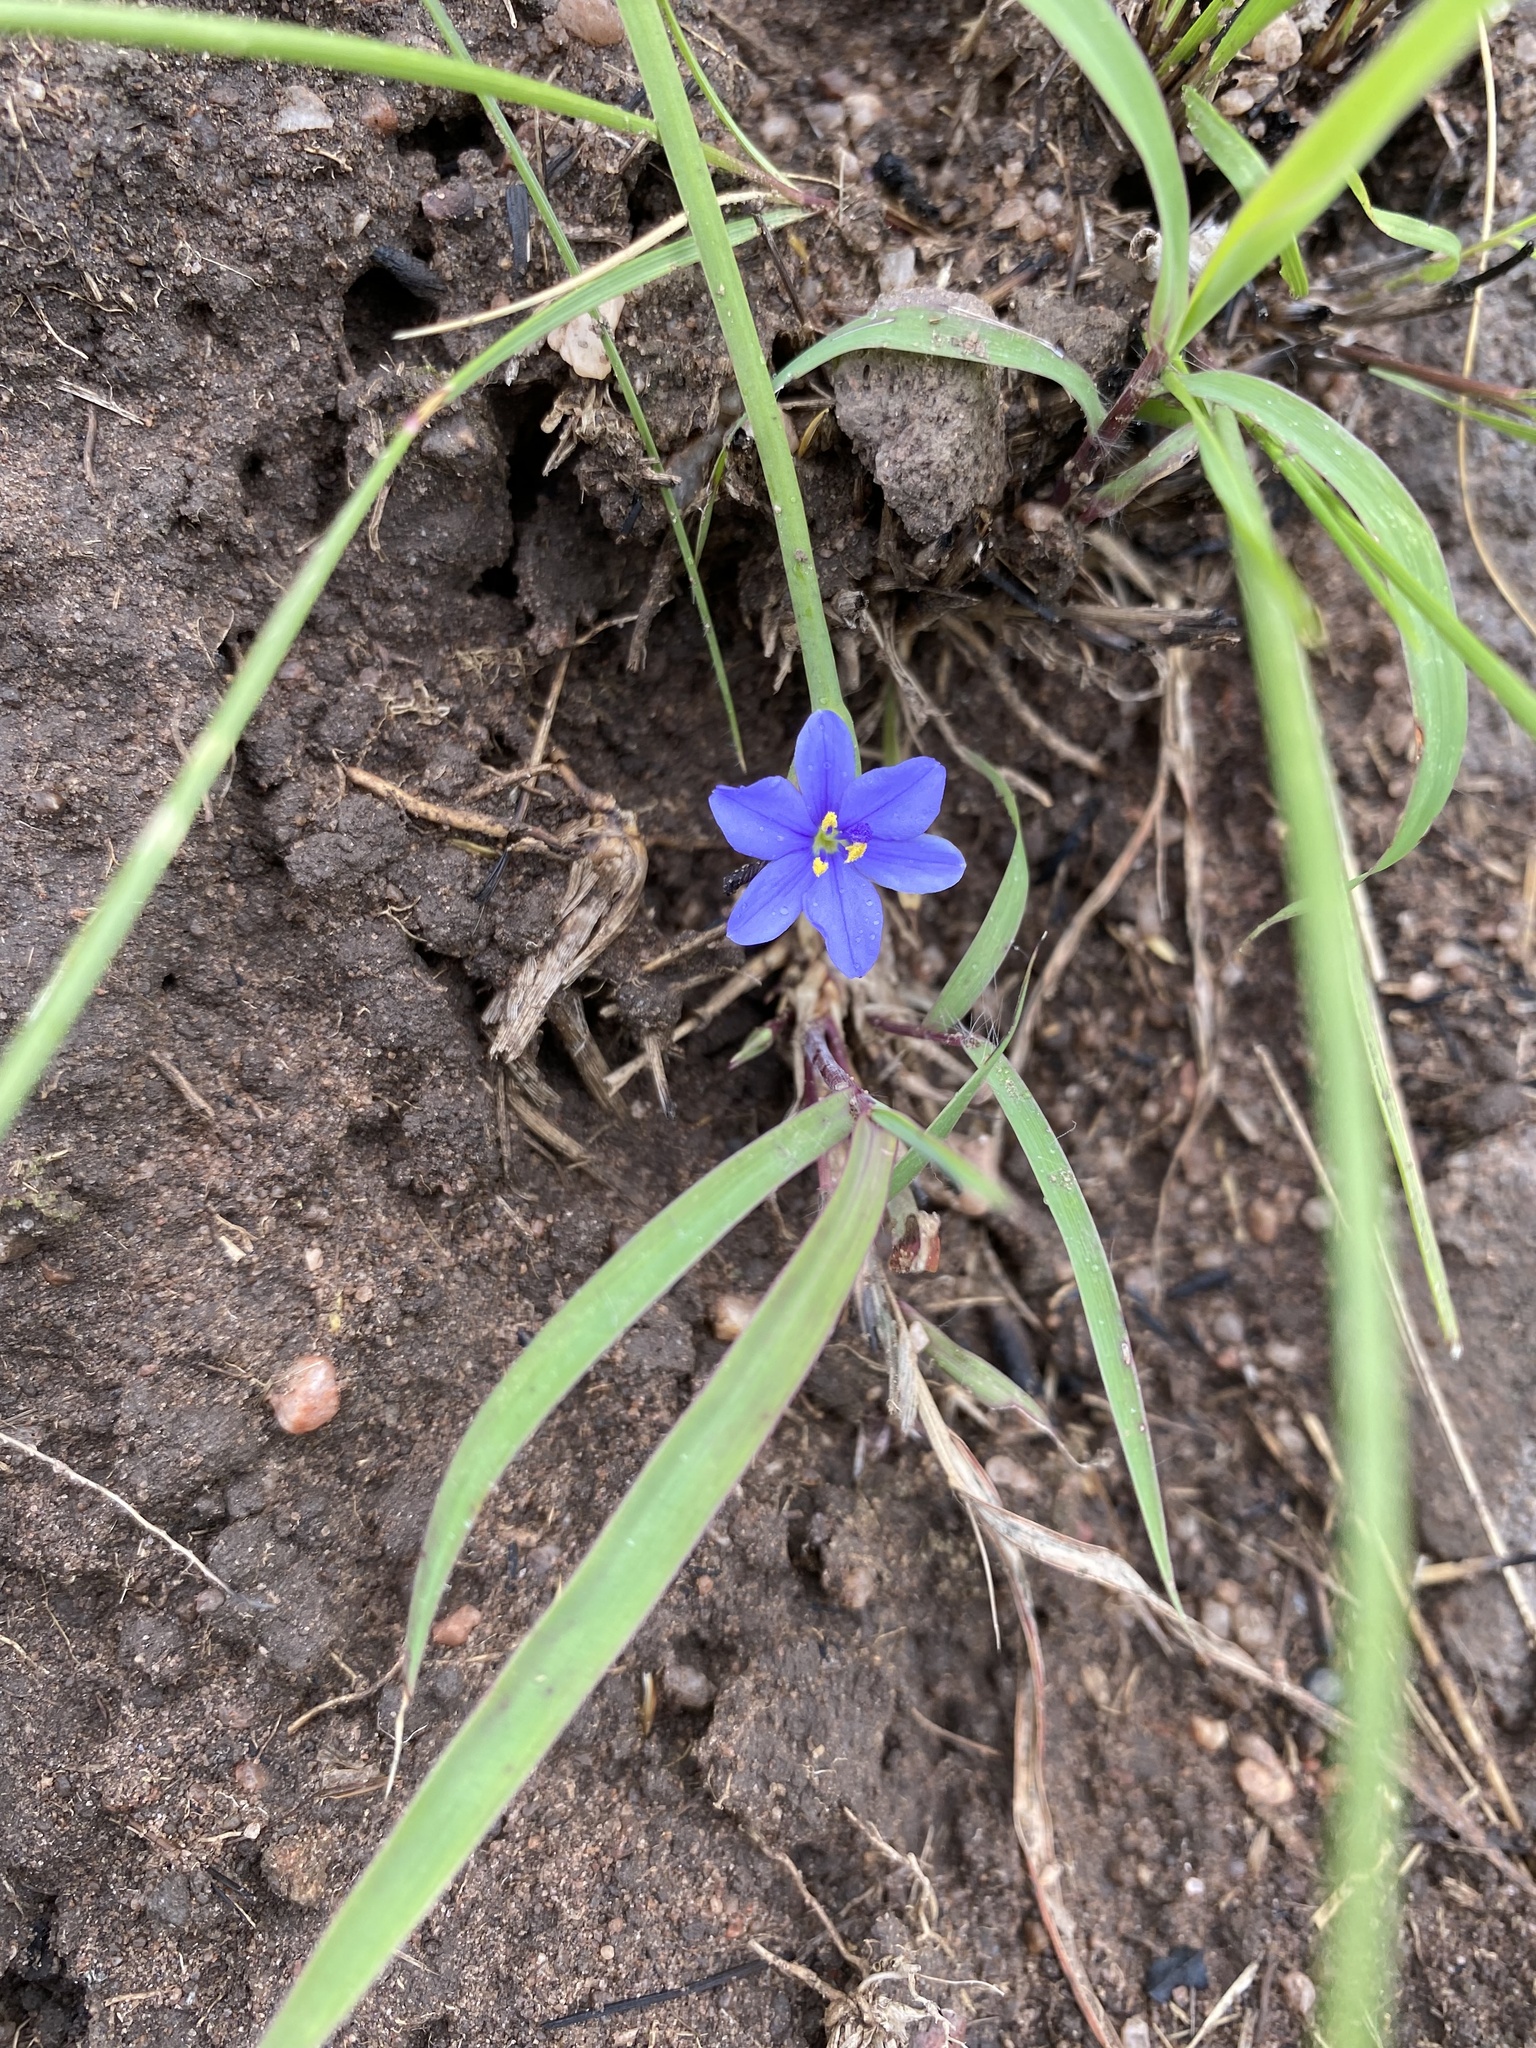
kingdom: Plantae
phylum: Tracheophyta
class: Liliopsida
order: Asparagales
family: Iridaceae
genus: Aristea
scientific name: Aristea abyssinica
